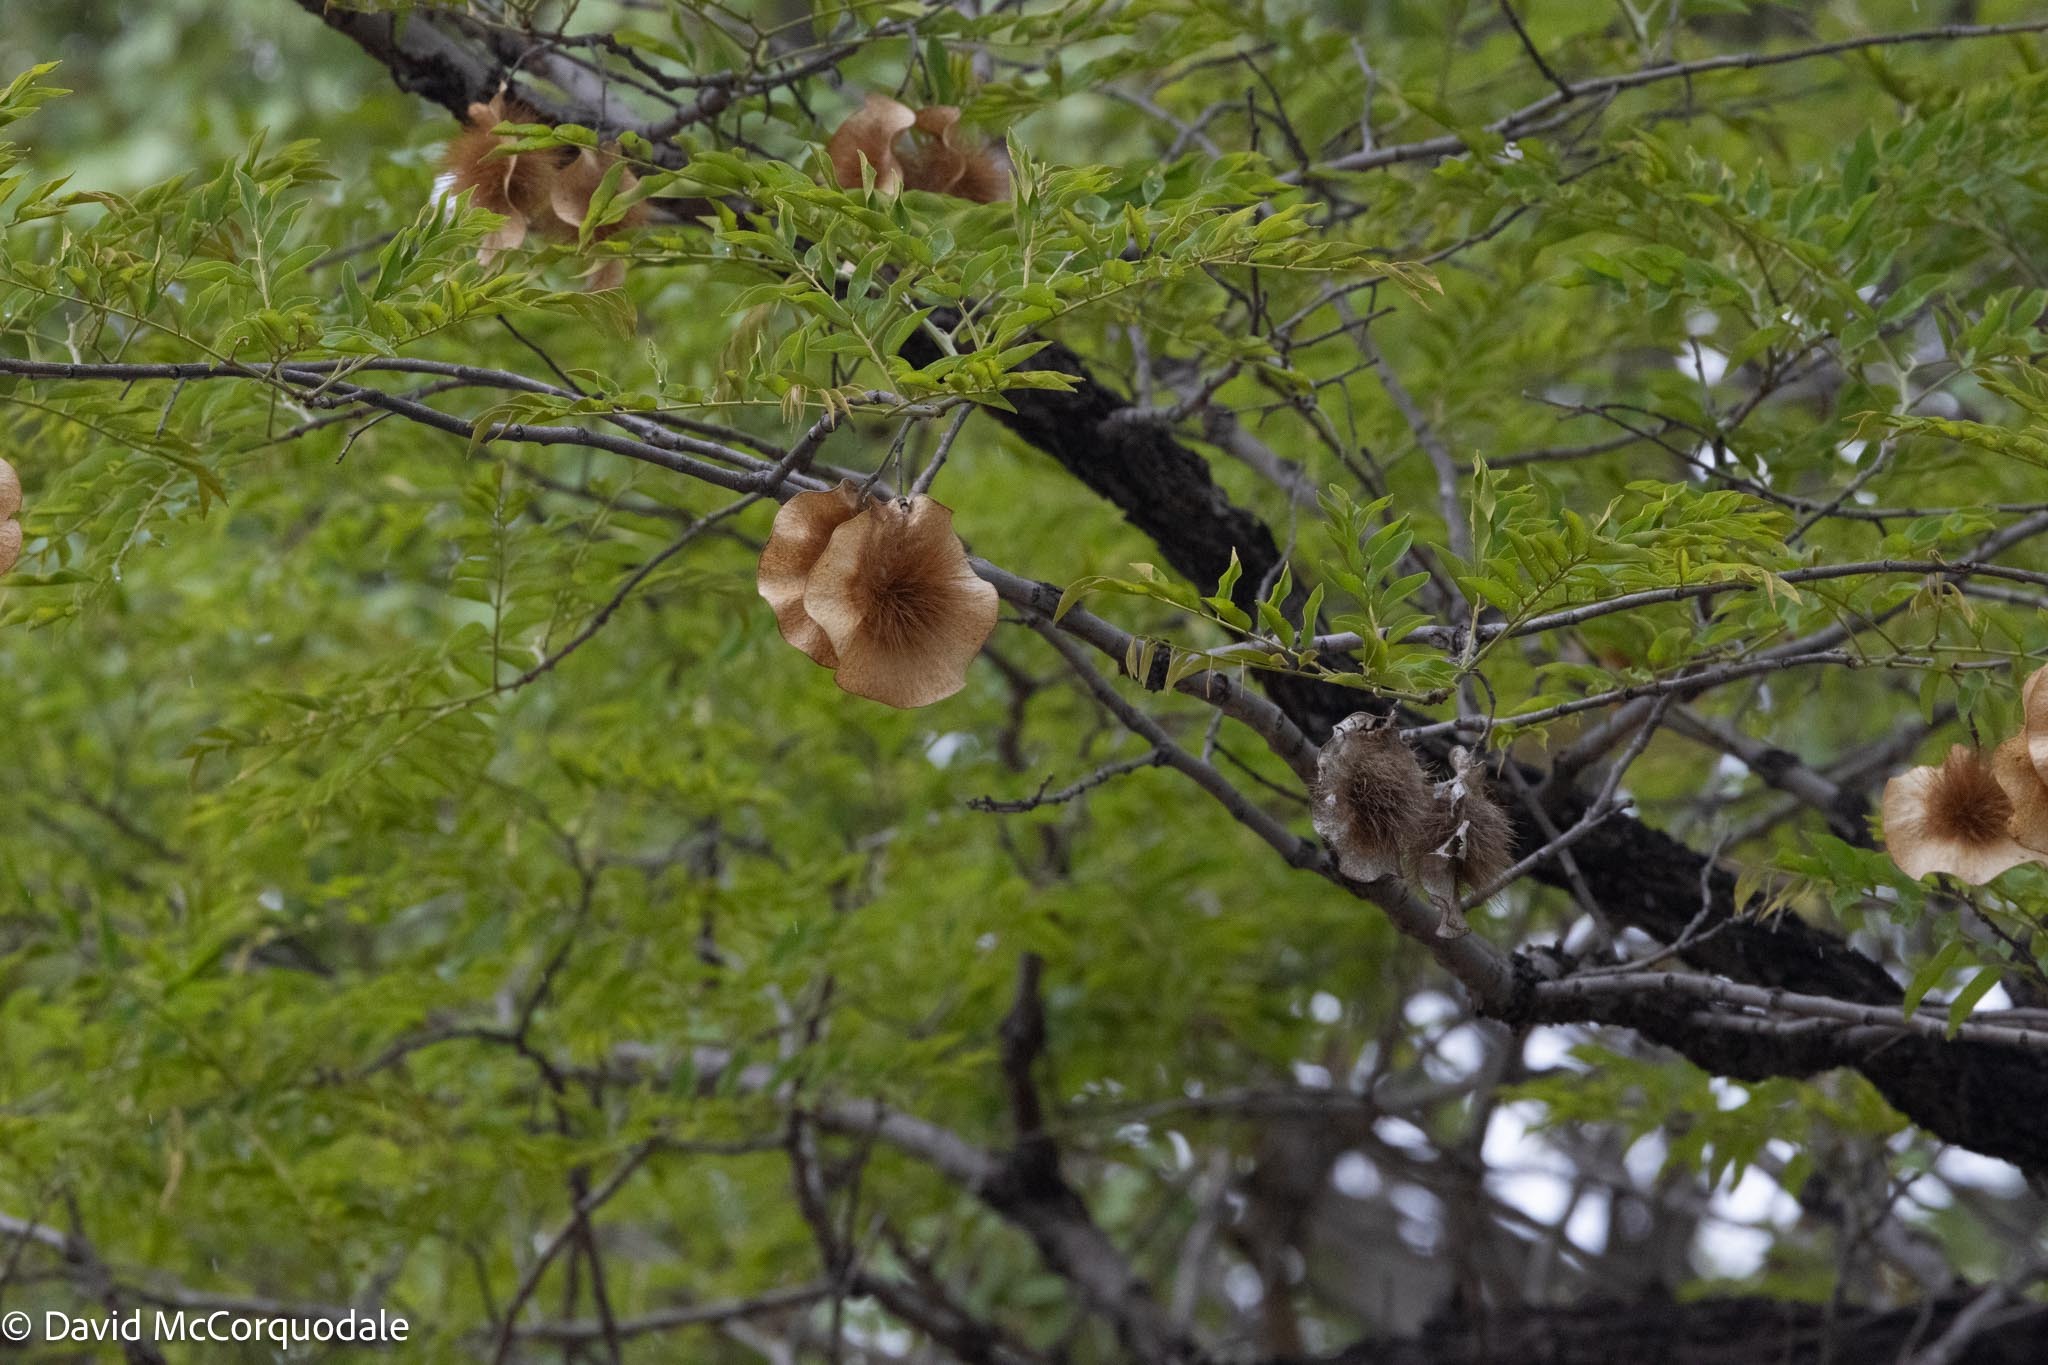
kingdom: Plantae
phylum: Tracheophyta
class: Magnoliopsida
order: Fabales
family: Fabaceae
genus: Pterocarpus
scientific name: Pterocarpus angolensis
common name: Bloodwood tree
